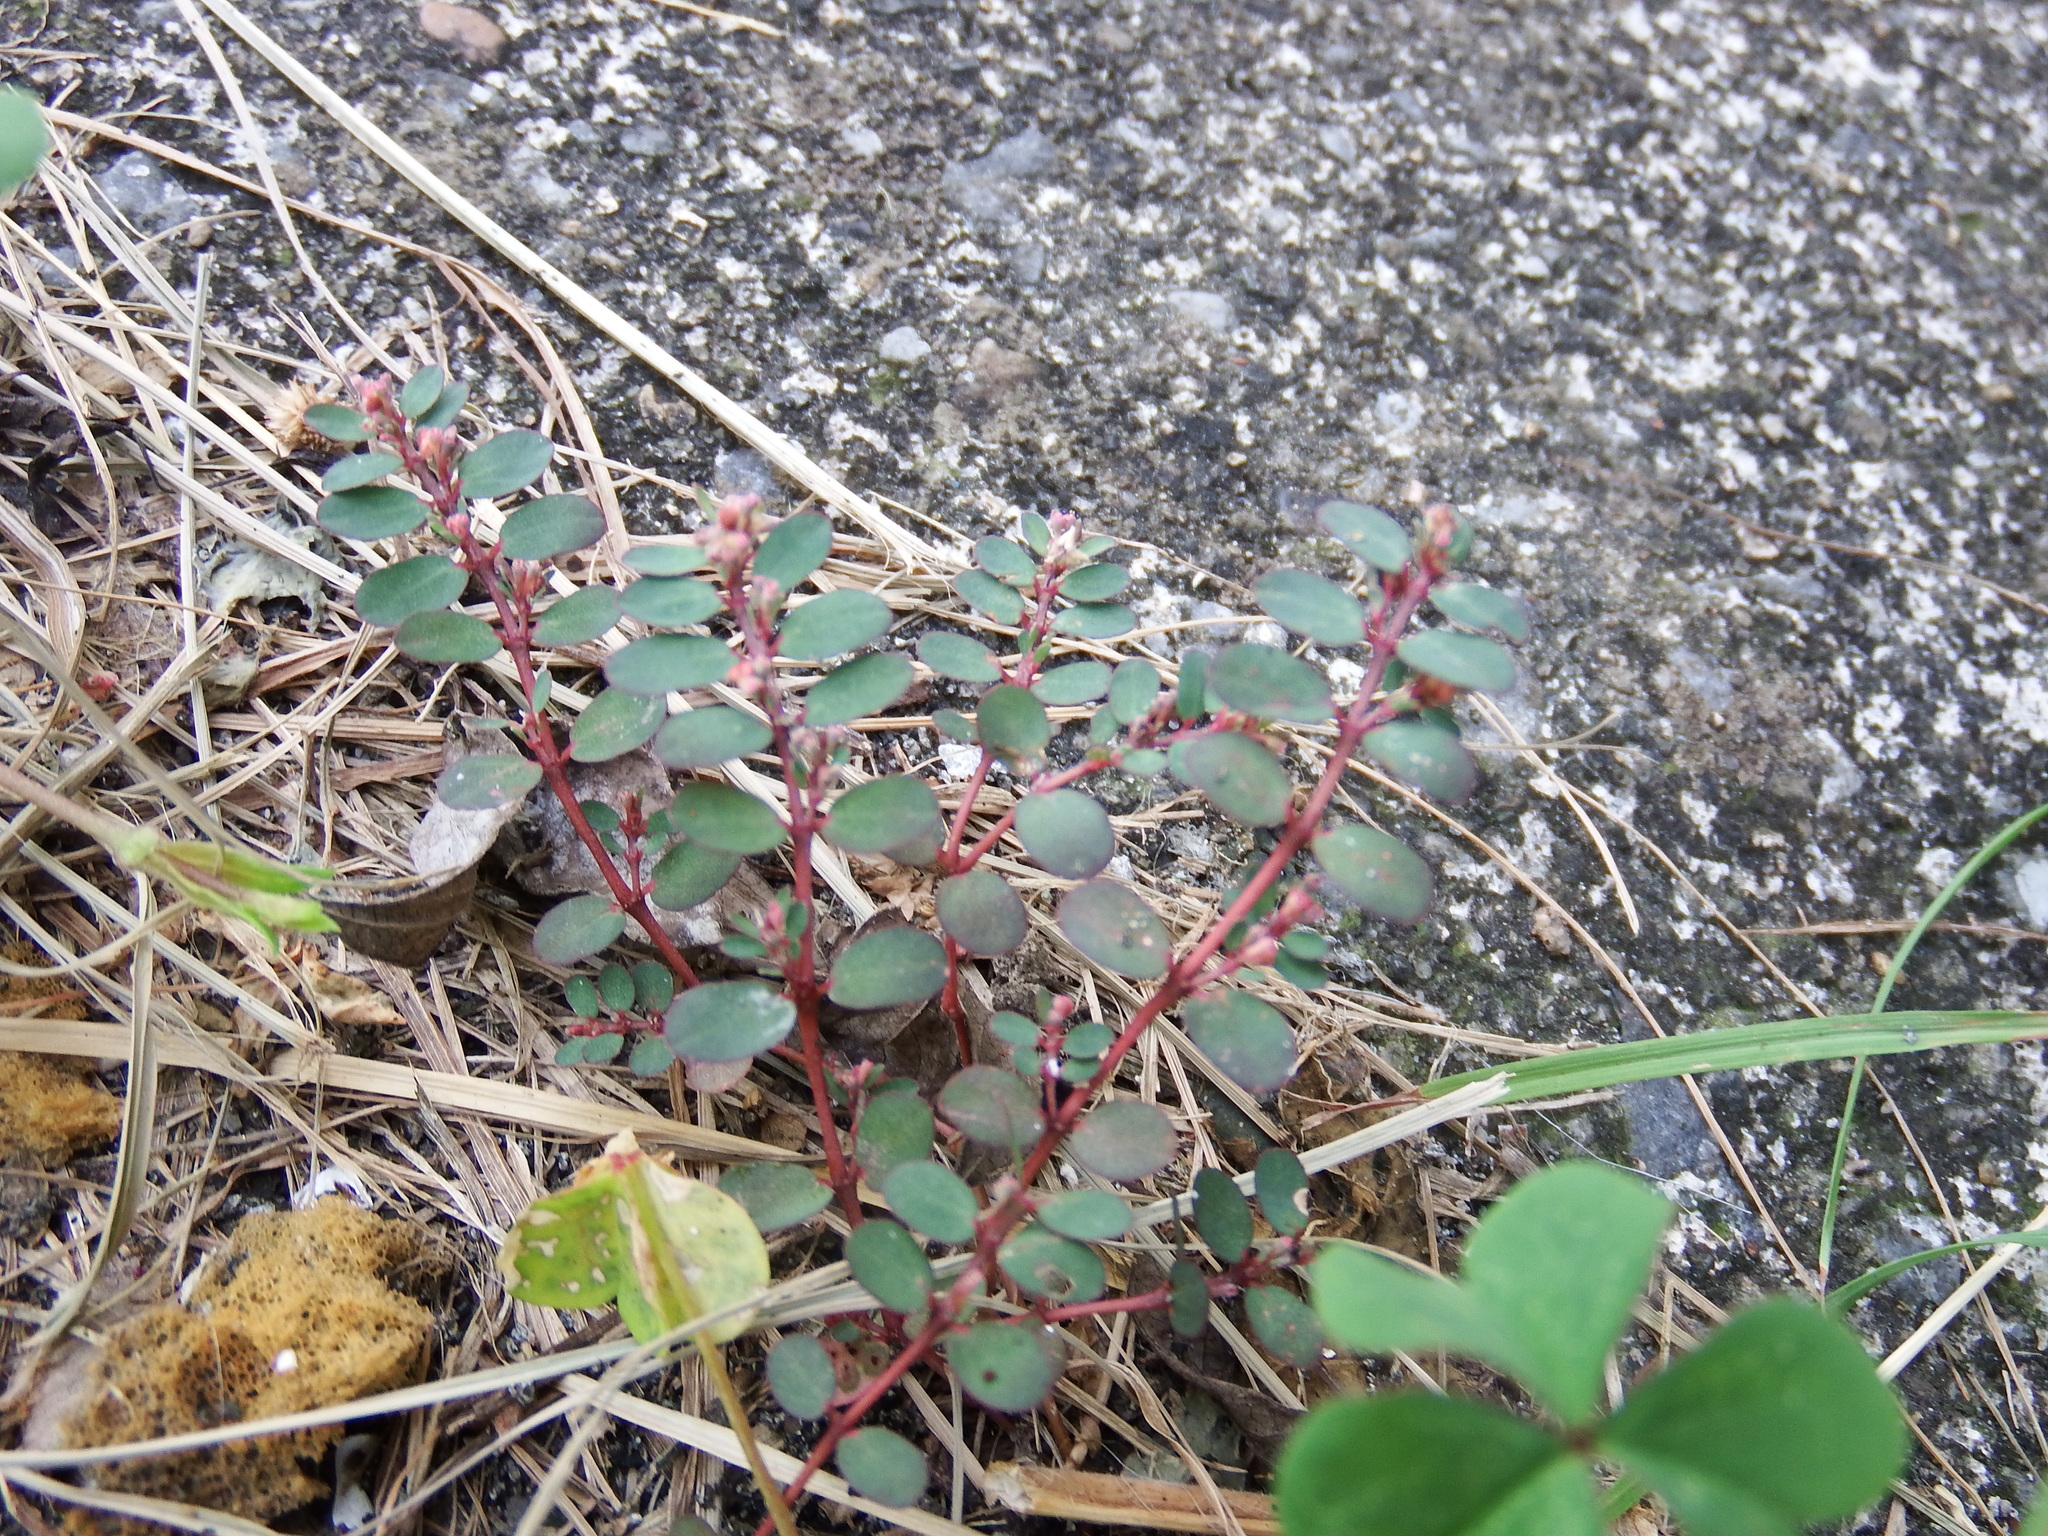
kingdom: Plantae
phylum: Tracheophyta
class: Magnoliopsida
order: Malpighiales
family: Euphorbiaceae
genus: Euphorbia
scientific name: Euphorbia prostrata
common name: Prostrate sandmat
